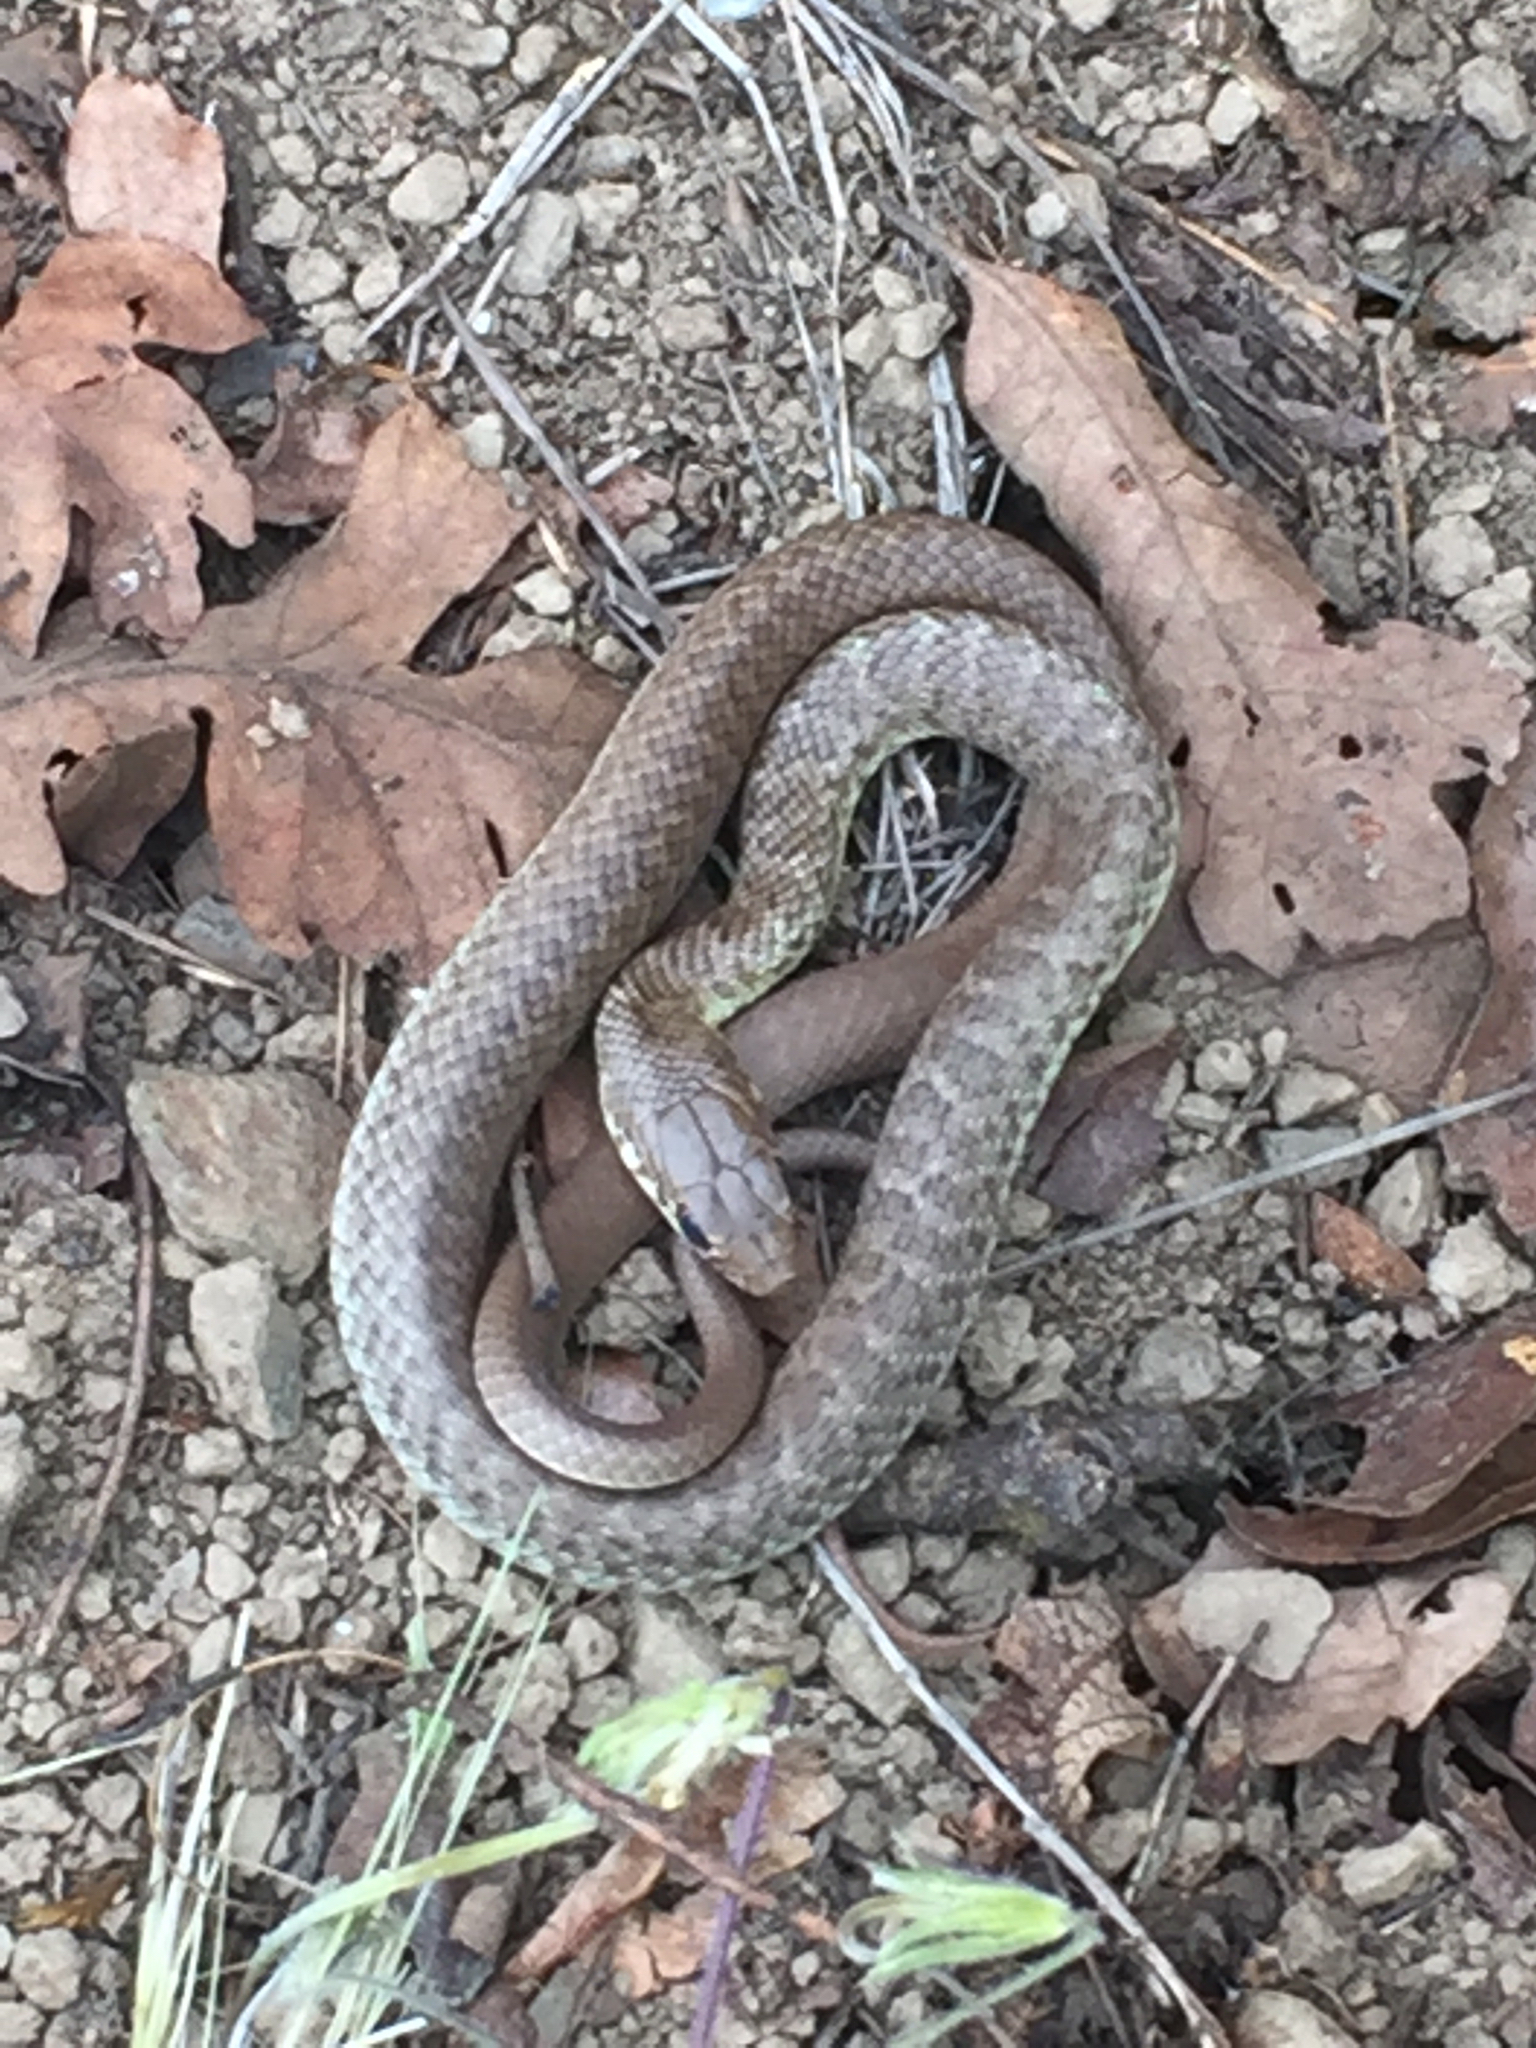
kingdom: Animalia
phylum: Chordata
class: Squamata
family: Colubridae
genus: Coluber
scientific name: Coluber constrictor
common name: Eastern racer
